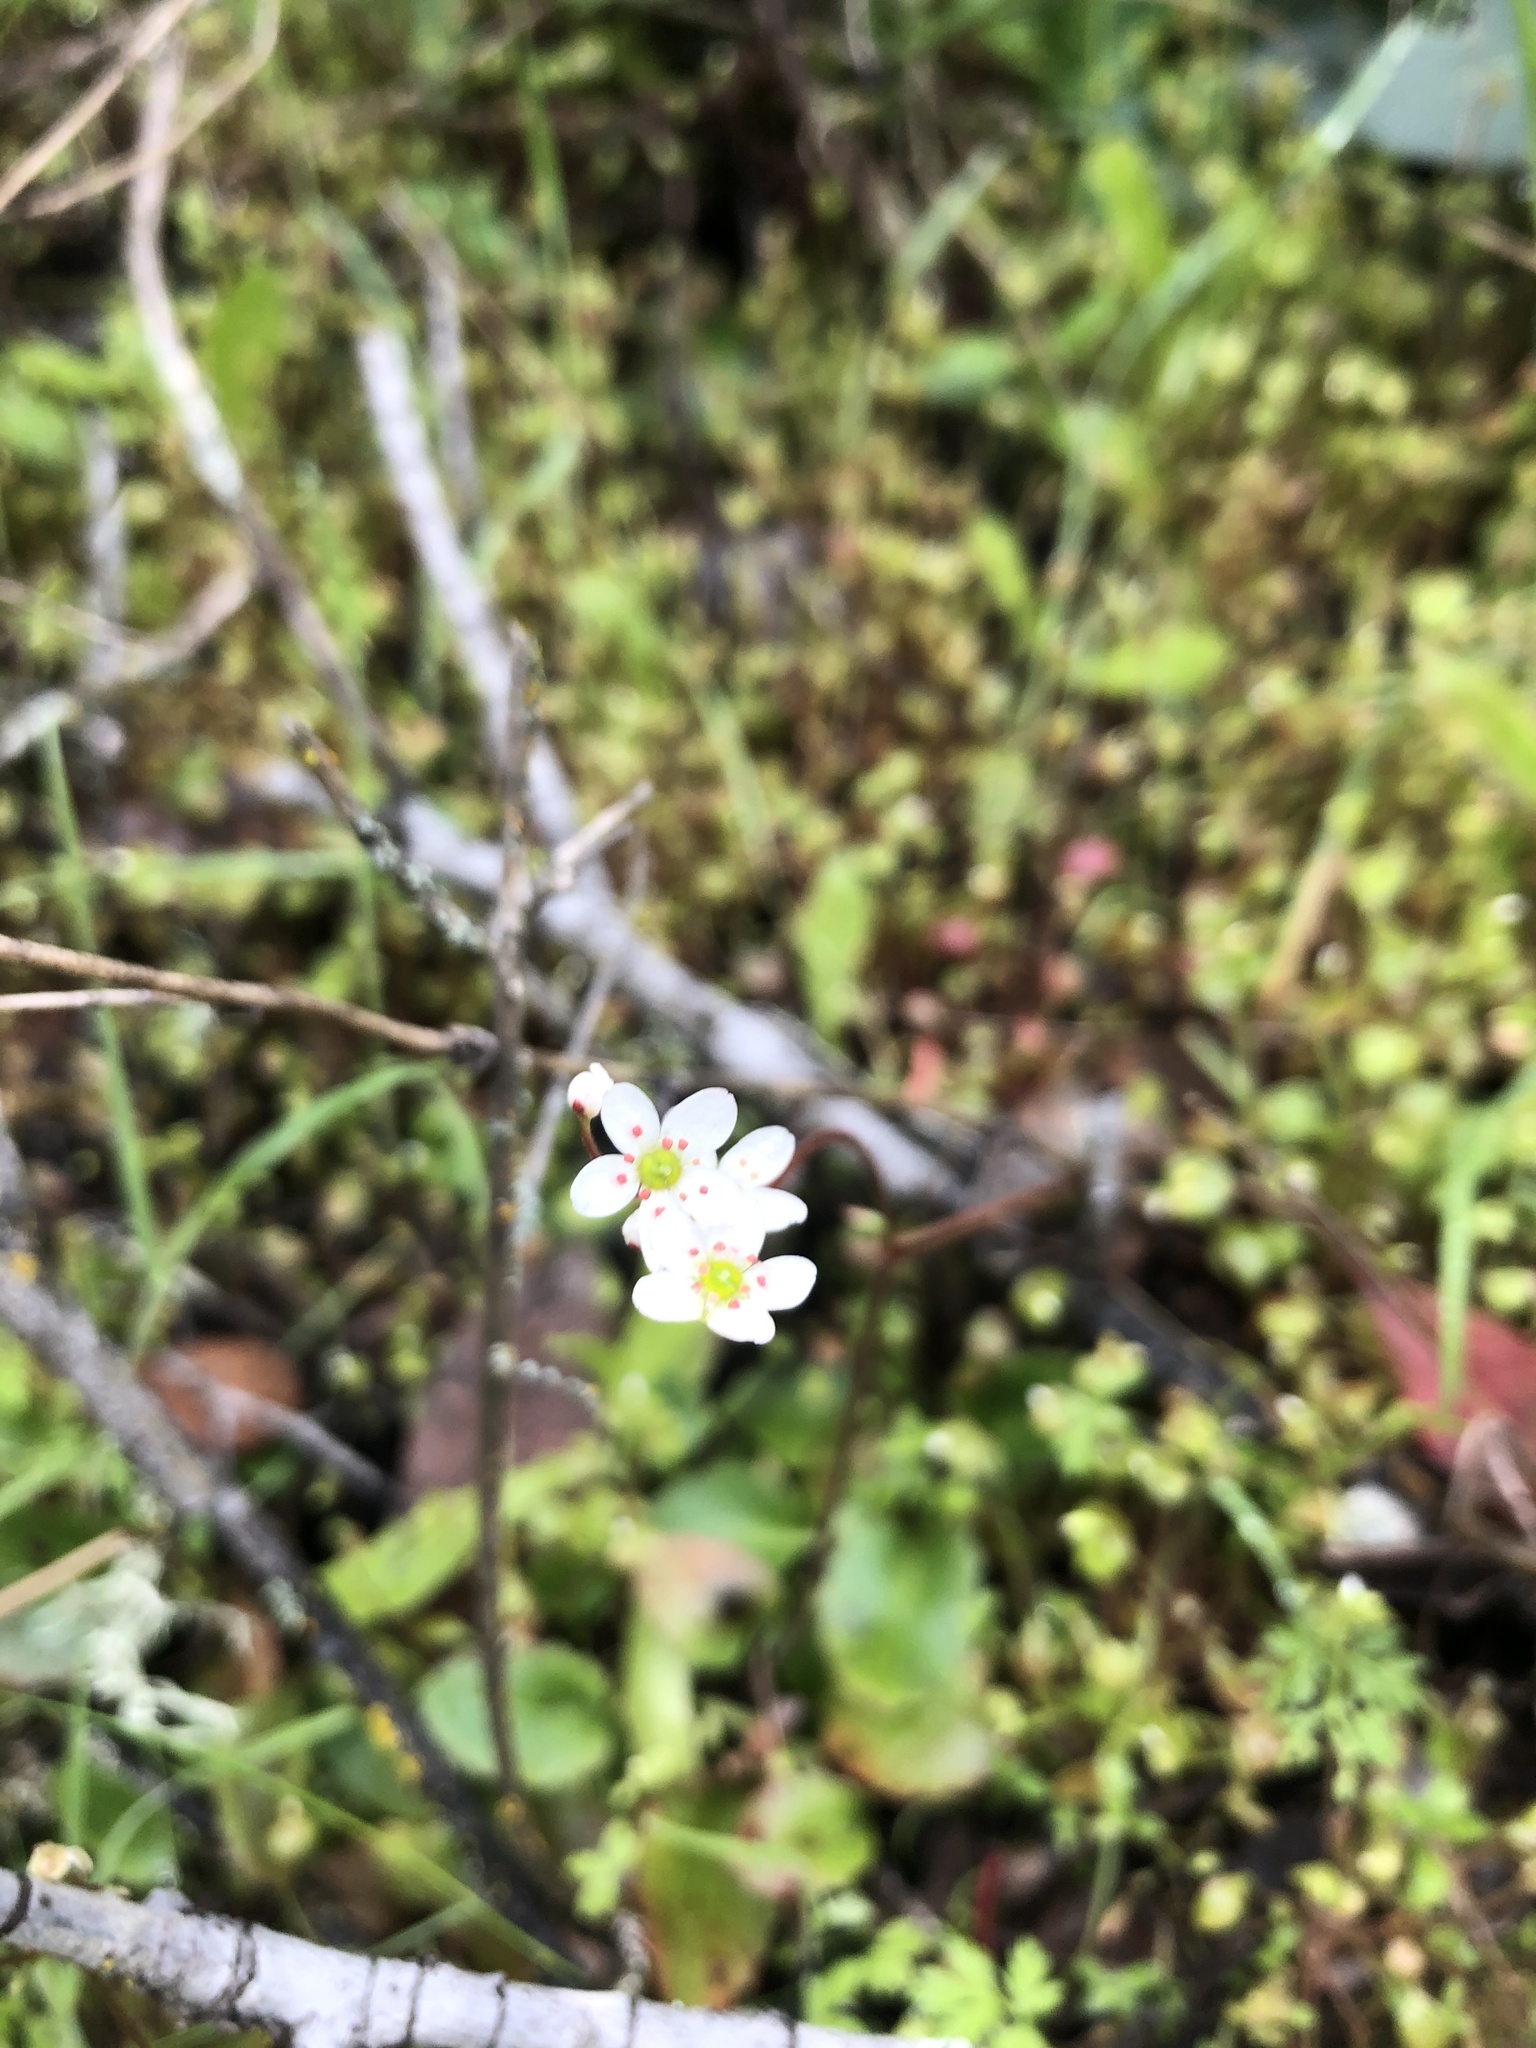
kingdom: Plantae
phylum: Tracheophyta
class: Magnoliopsida
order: Saxifragales
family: Saxifragaceae
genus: Micranthes
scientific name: Micranthes californica
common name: California saxifrage
